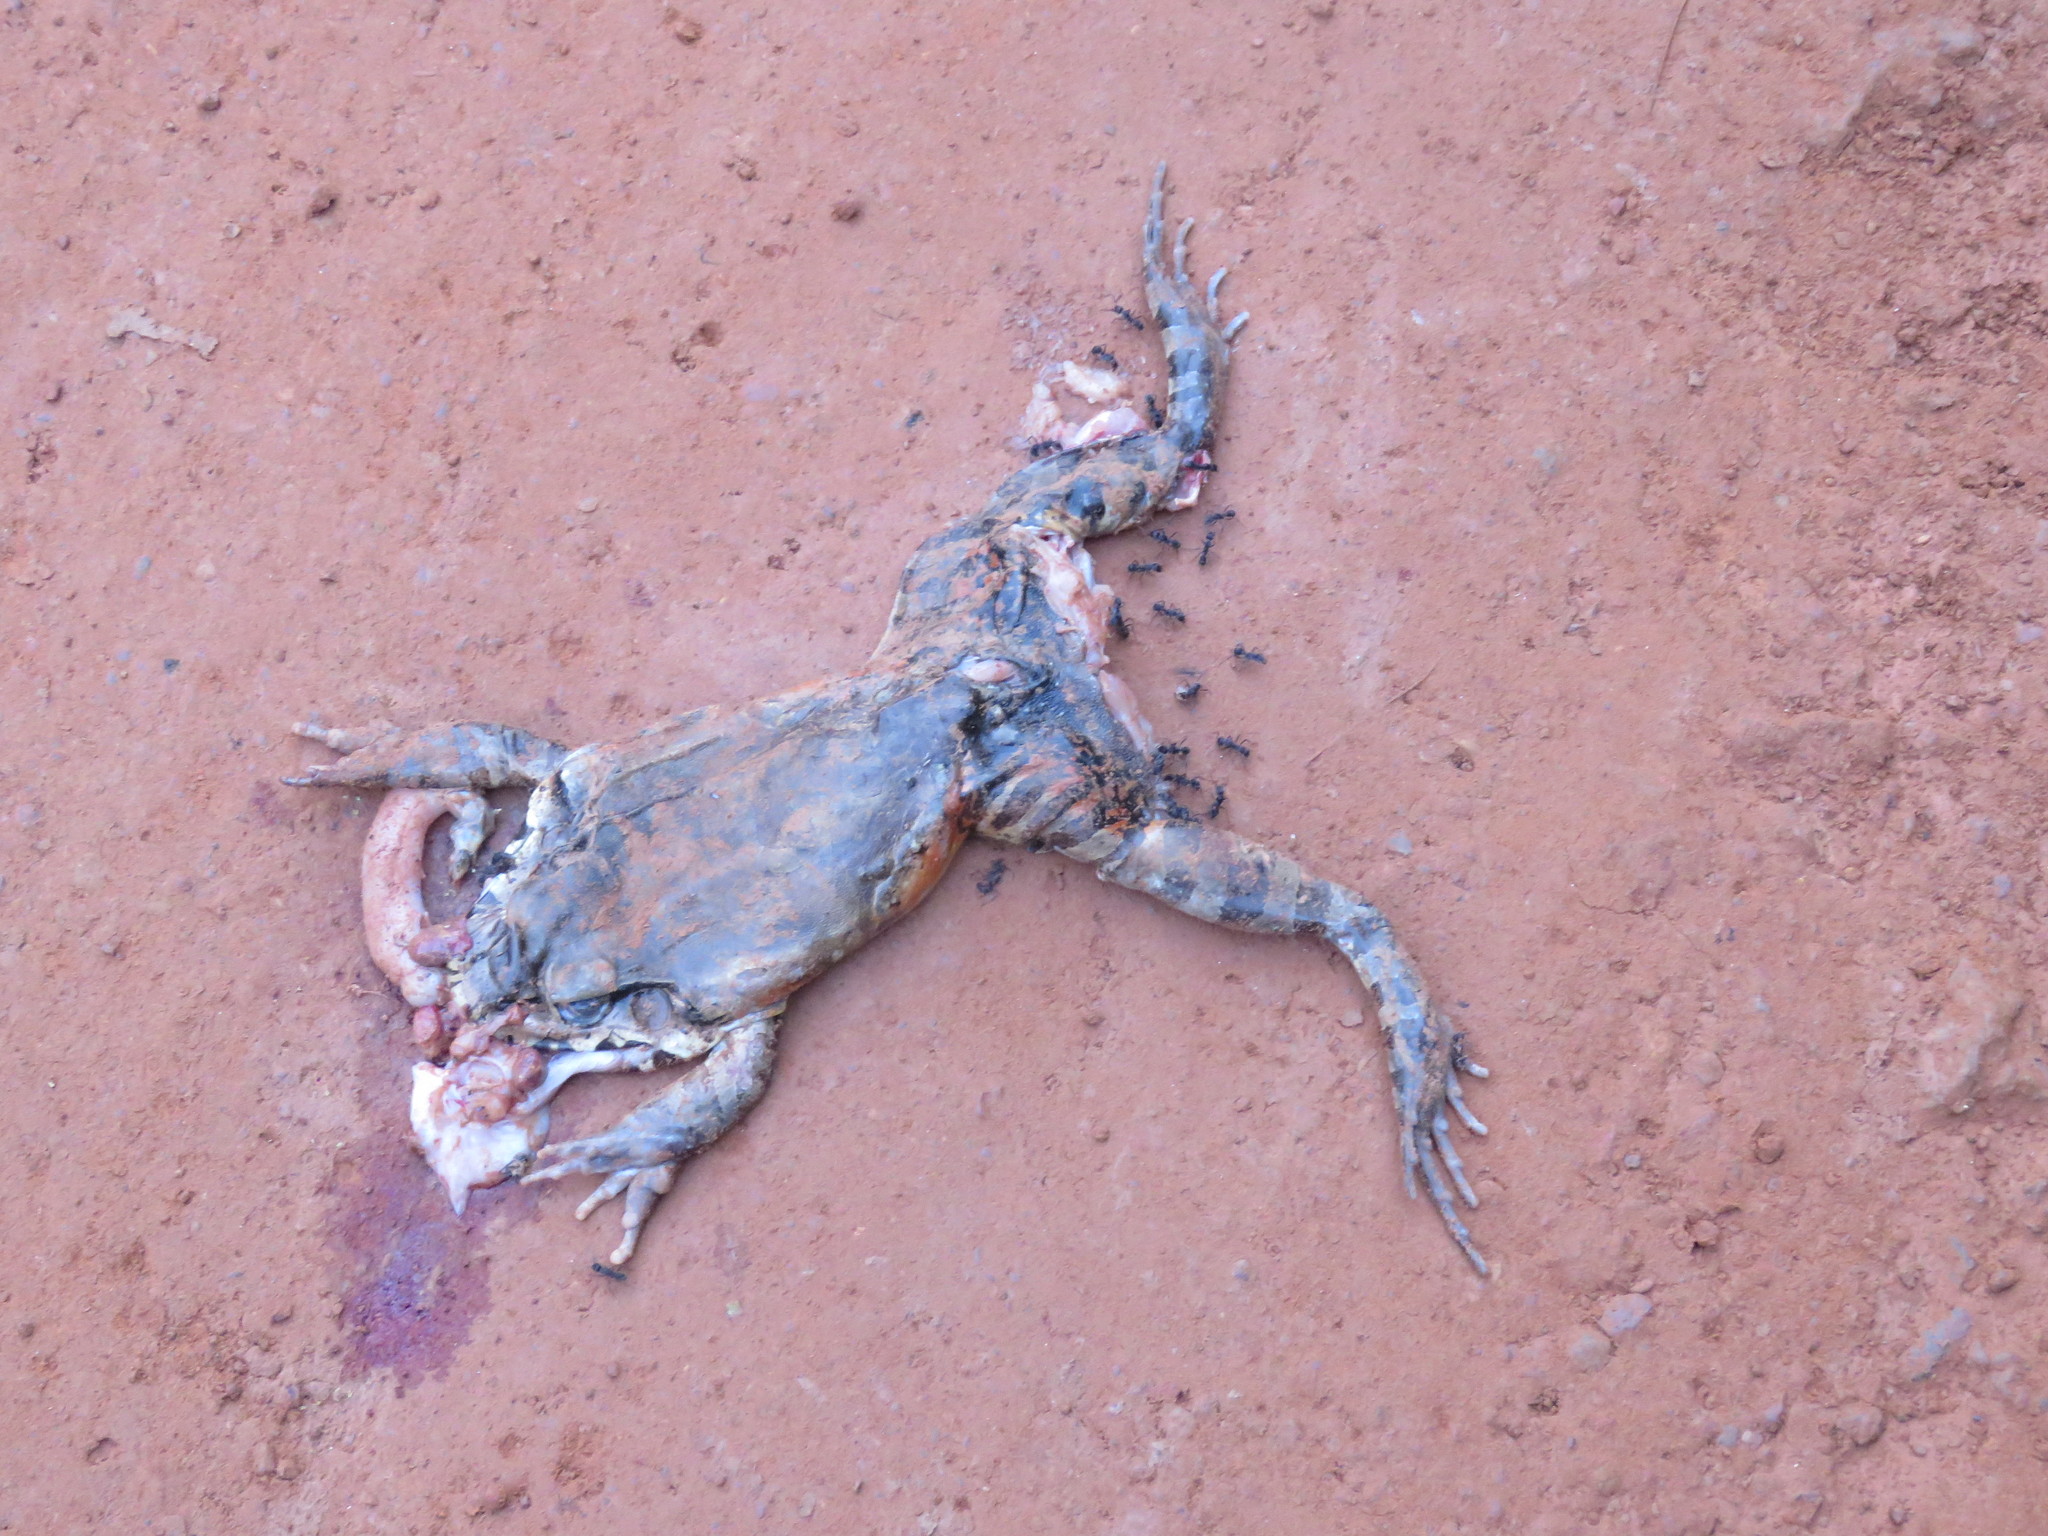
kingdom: Animalia
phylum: Chordata
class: Amphibia
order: Anura
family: Leptodactylidae
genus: Leptodactylus
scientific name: Leptodactylus knudseni
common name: Knudsen's frog
